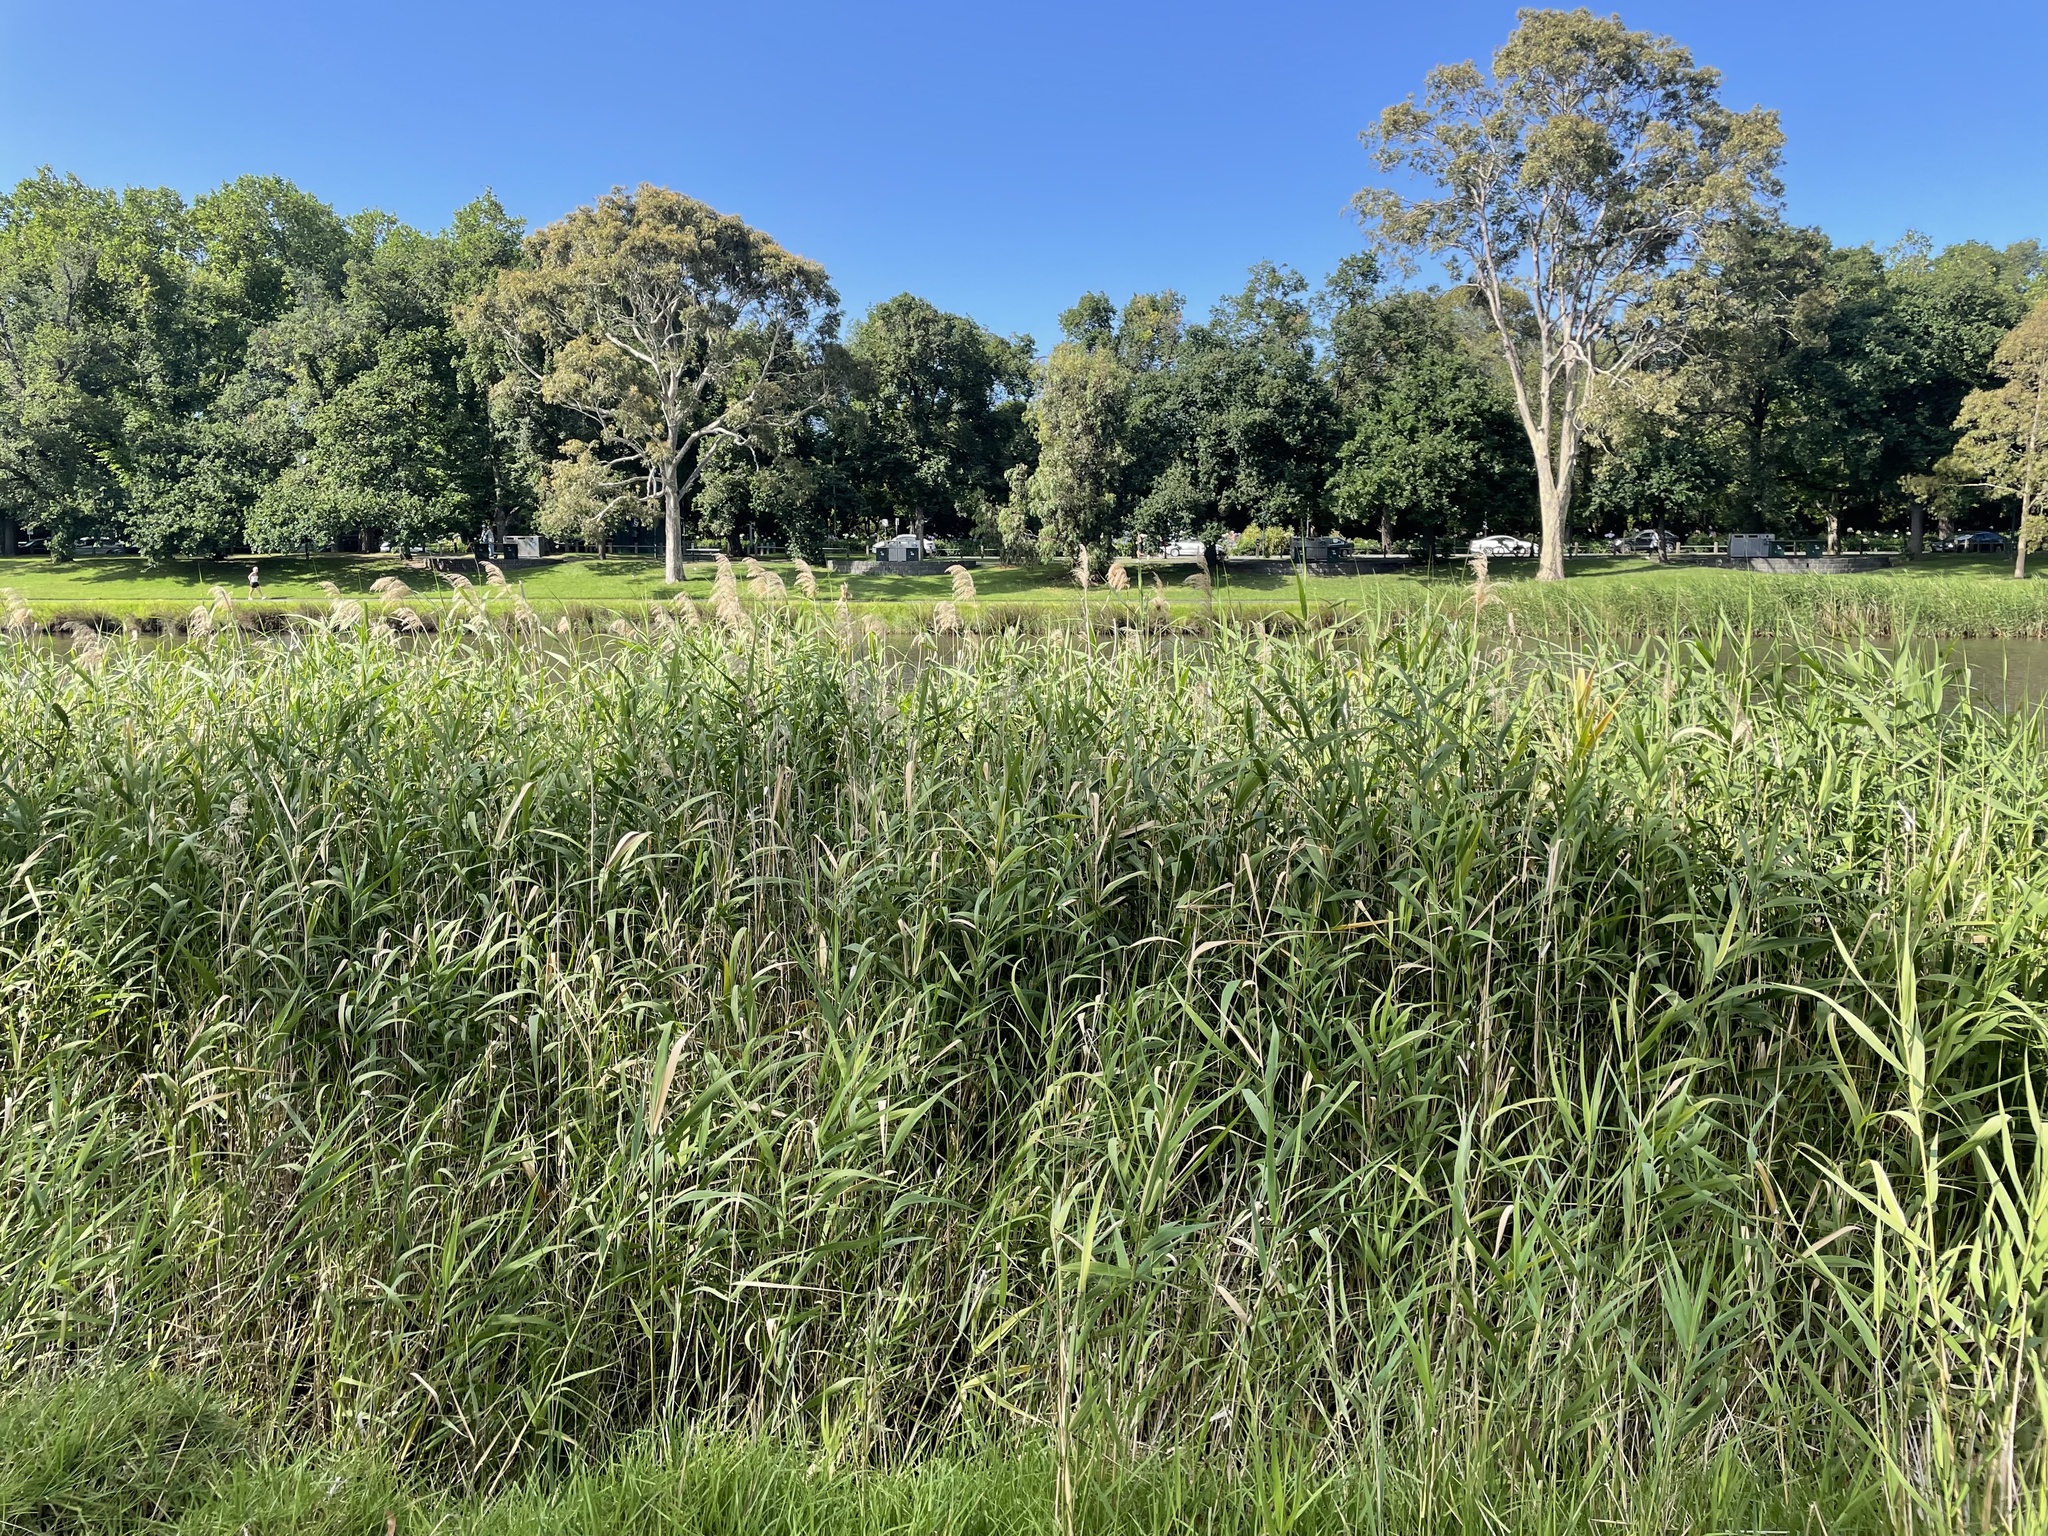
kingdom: Plantae
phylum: Tracheophyta
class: Liliopsida
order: Poales
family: Poaceae
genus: Phragmites
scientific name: Phragmites australis
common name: Common reed
